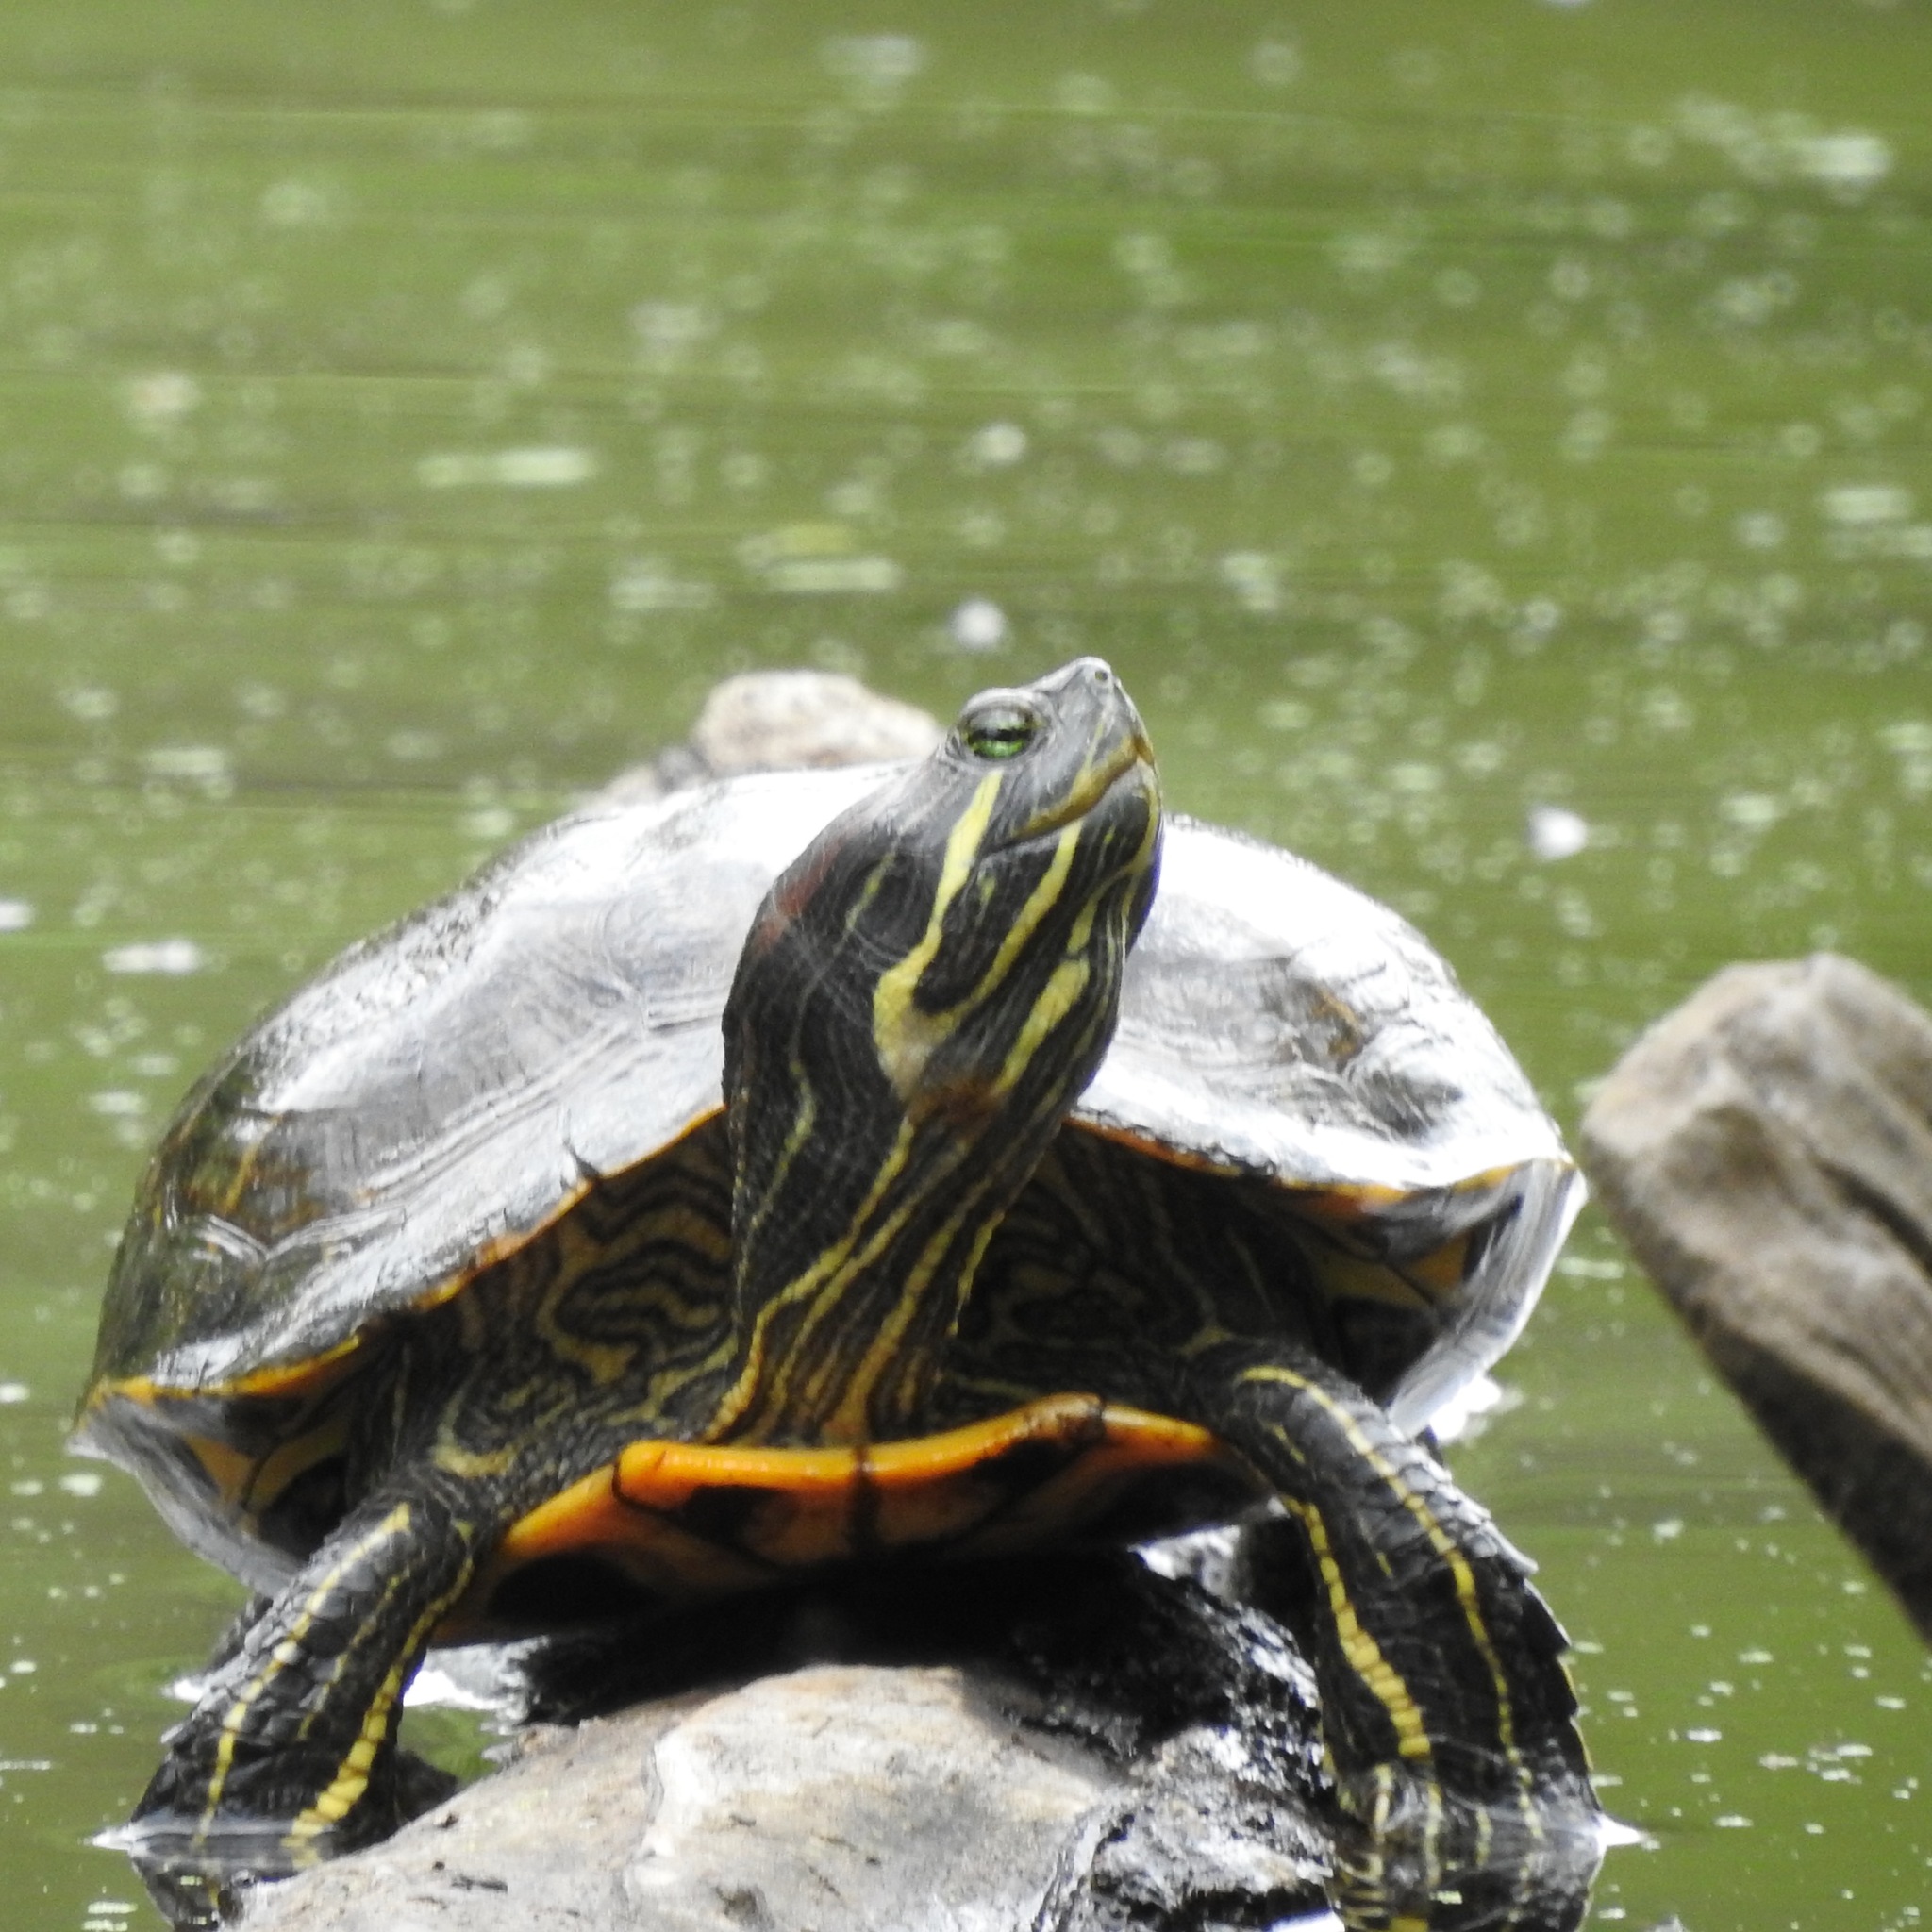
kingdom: Animalia
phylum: Chordata
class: Testudines
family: Emydidae
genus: Trachemys
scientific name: Trachemys scripta
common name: Slider
